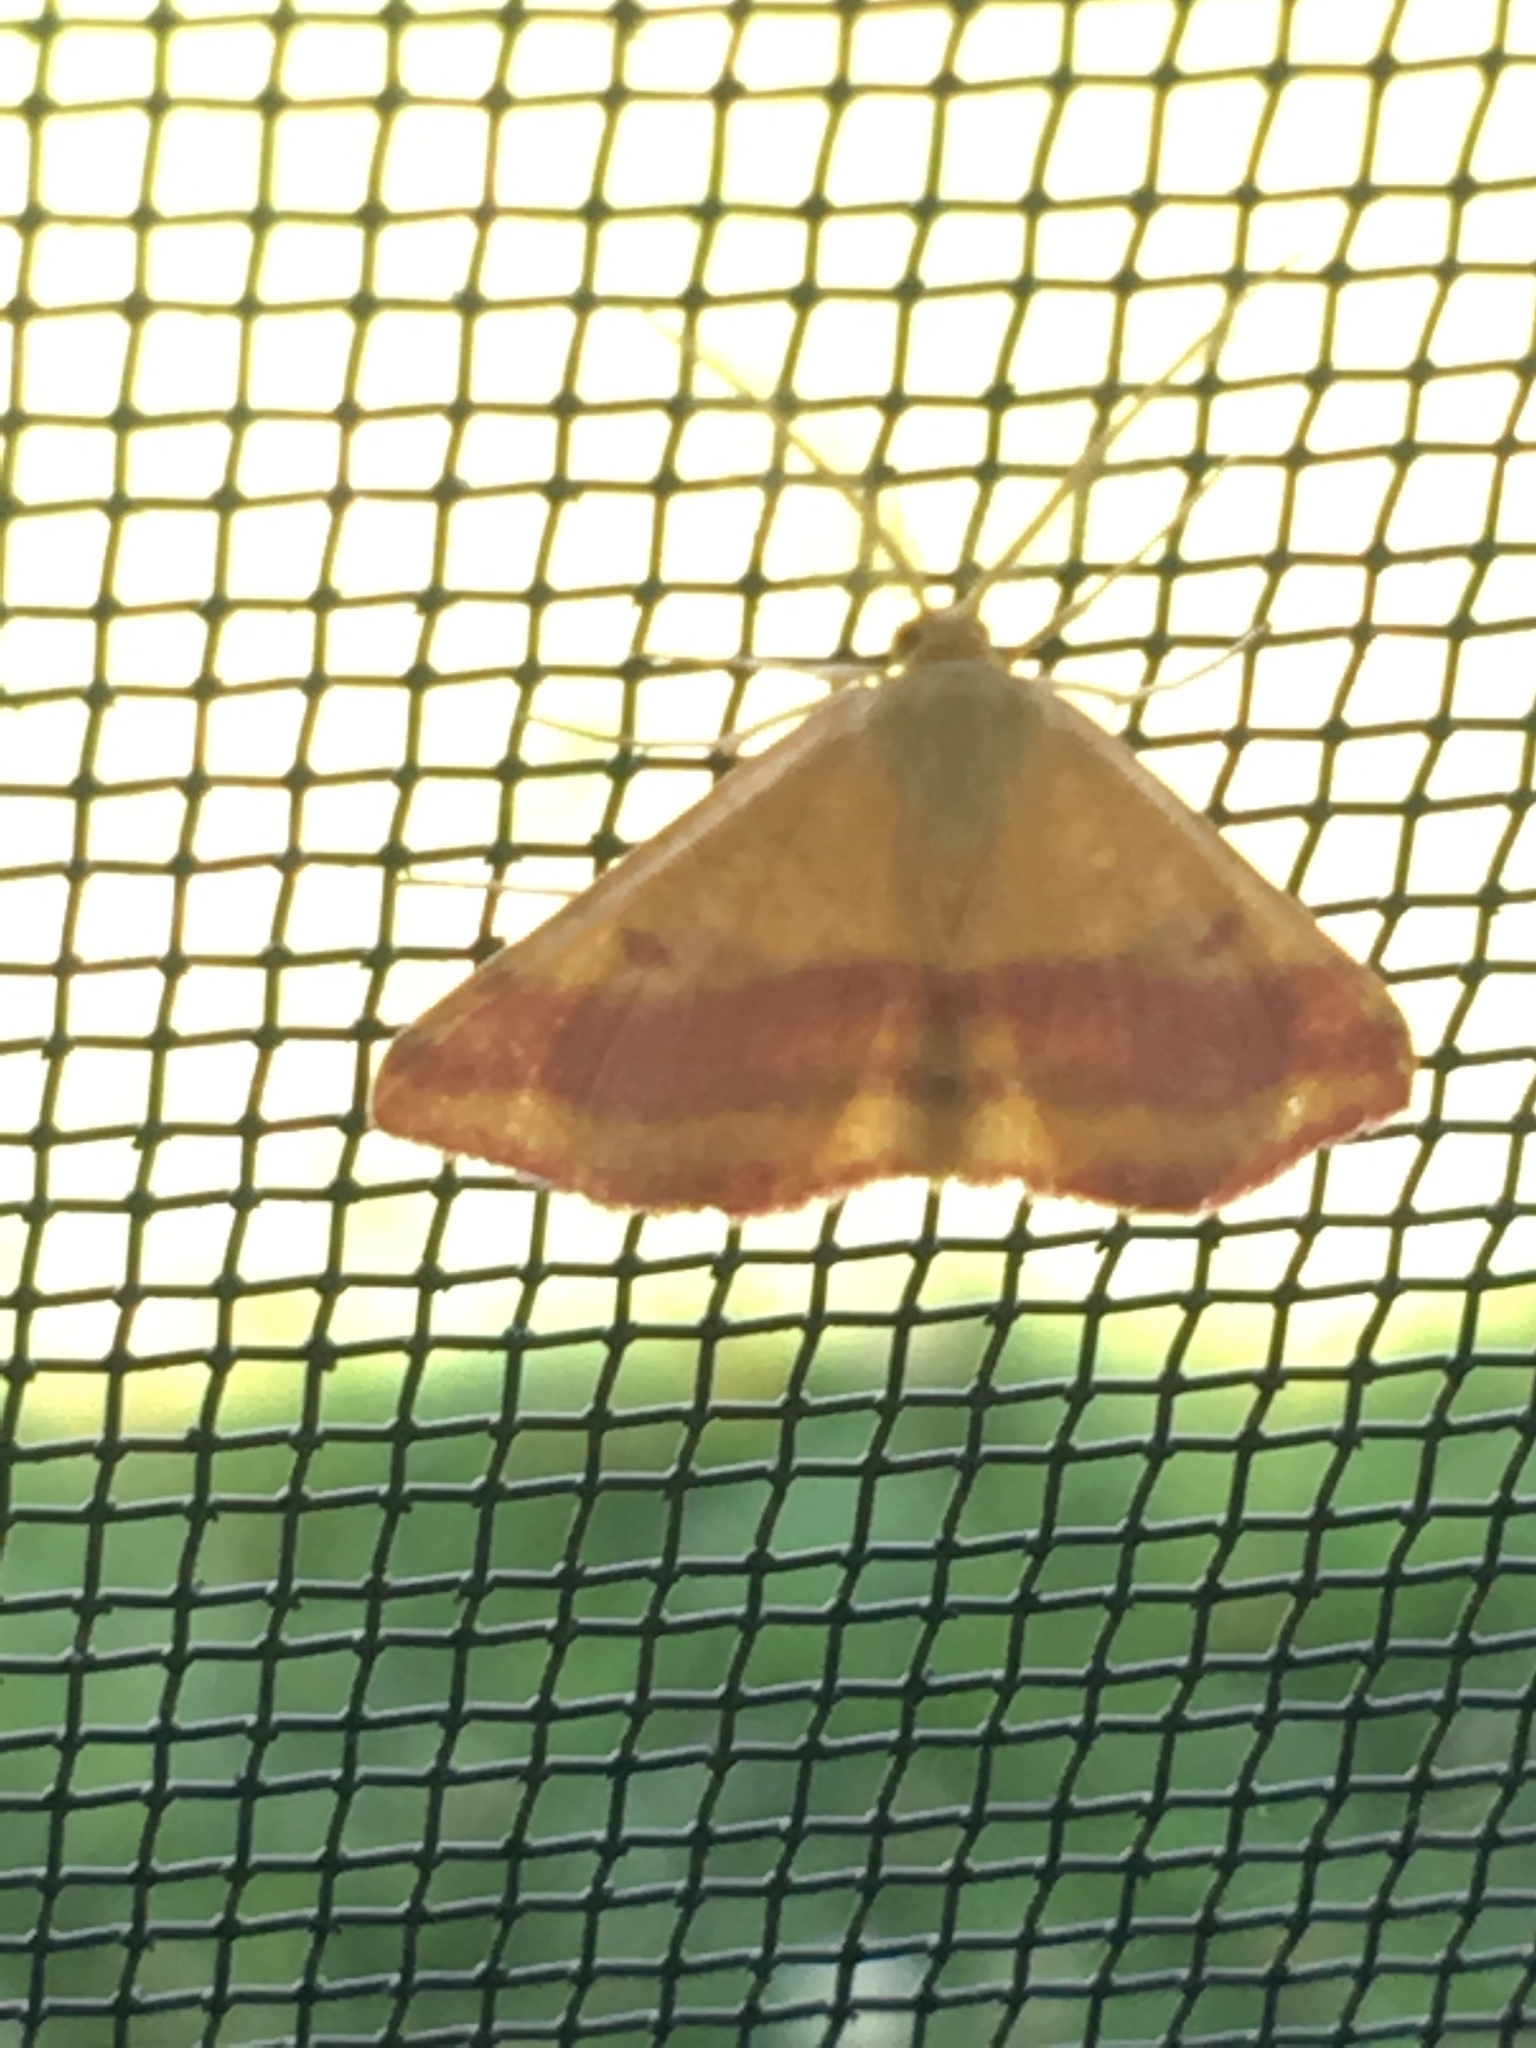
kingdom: Animalia
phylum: Arthropoda
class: Insecta
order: Lepidoptera
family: Geometridae
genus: Haematopis
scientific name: Haematopis grataria
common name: Chickweed geometer
